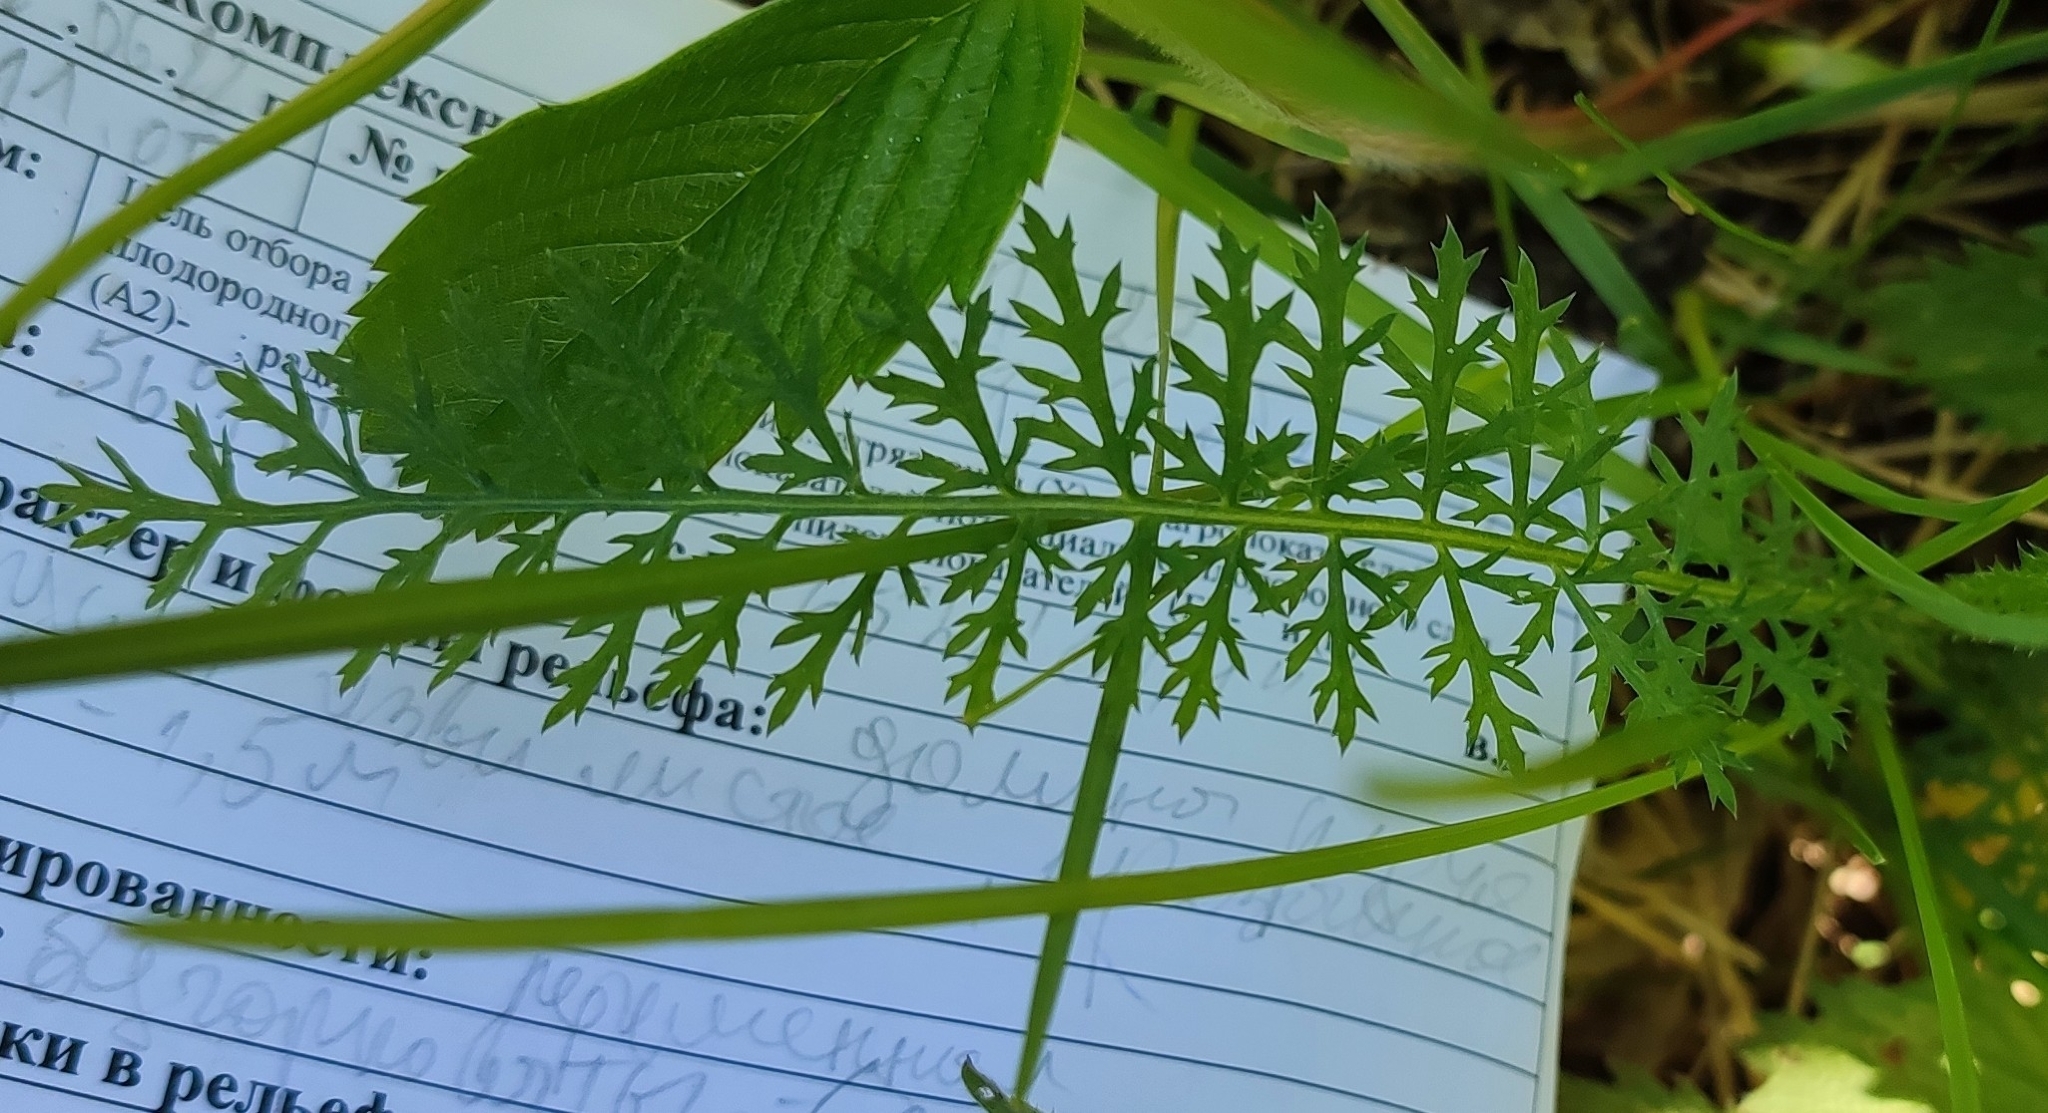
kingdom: Plantae
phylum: Tracheophyta
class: Magnoliopsida
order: Asterales
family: Asteraceae
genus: Achillea
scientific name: Achillea asiatica
